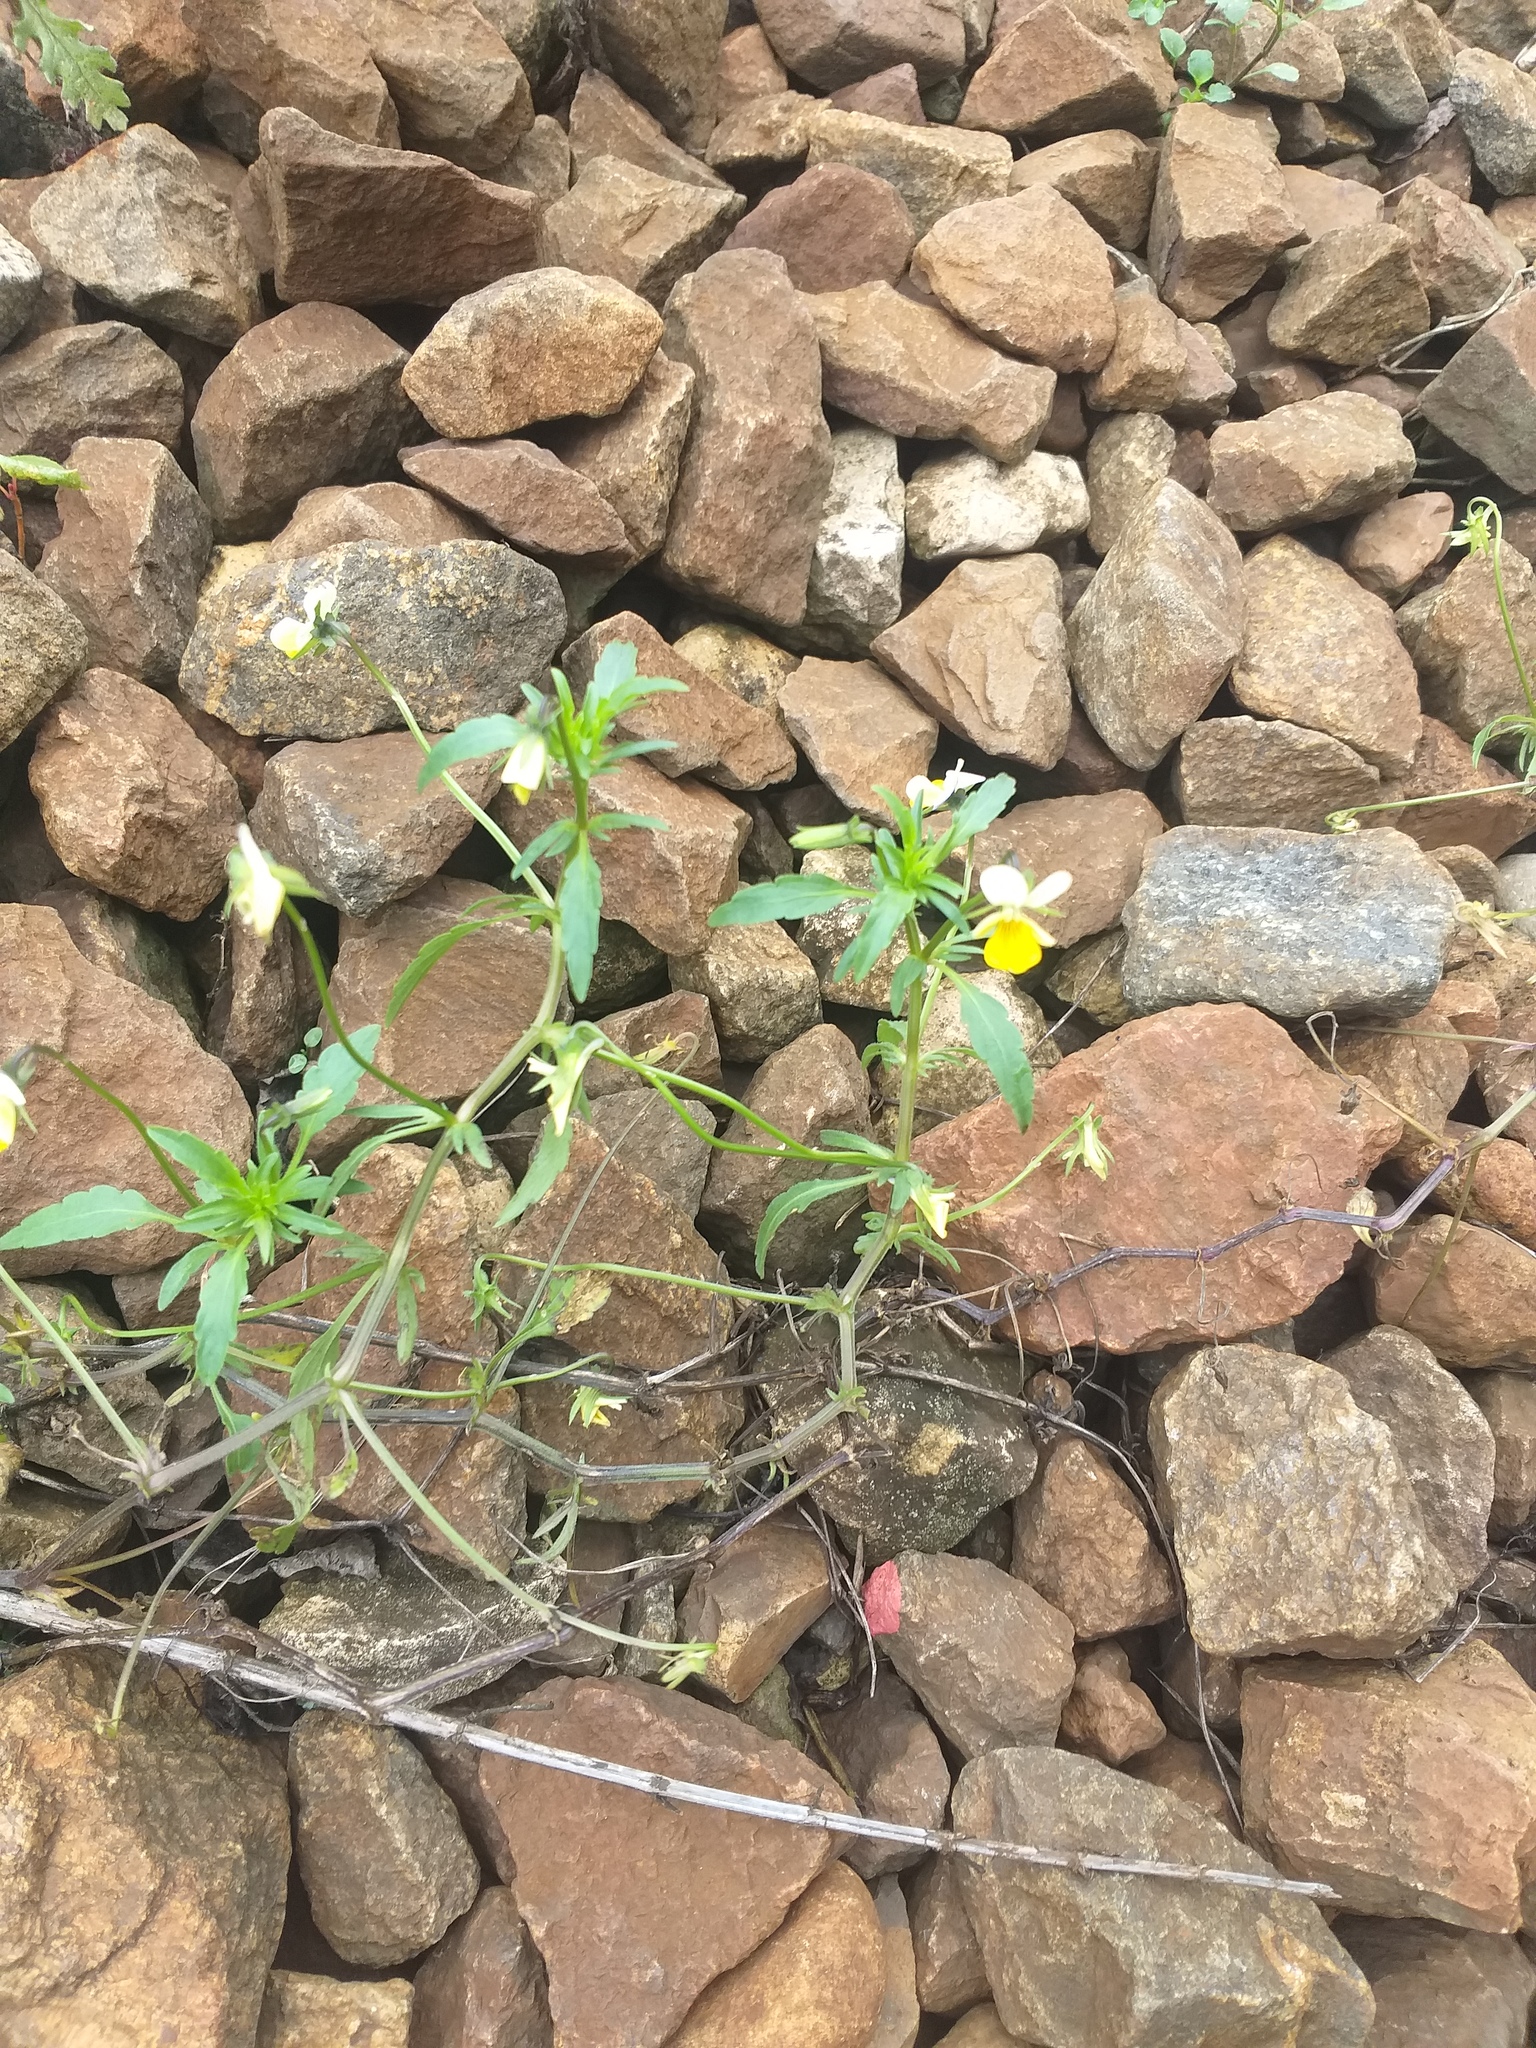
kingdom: Plantae
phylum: Tracheophyta
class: Magnoliopsida
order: Malpighiales
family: Violaceae
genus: Viola
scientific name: Viola contempta
